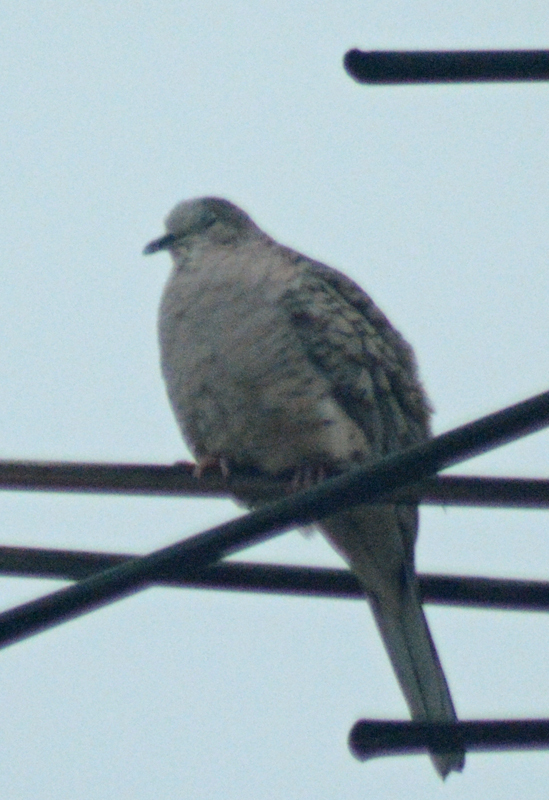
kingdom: Animalia
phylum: Chordata
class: Aves
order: Columbiformes
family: Columbidae
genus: Columbina
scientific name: Columbina inca
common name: Inca dove
